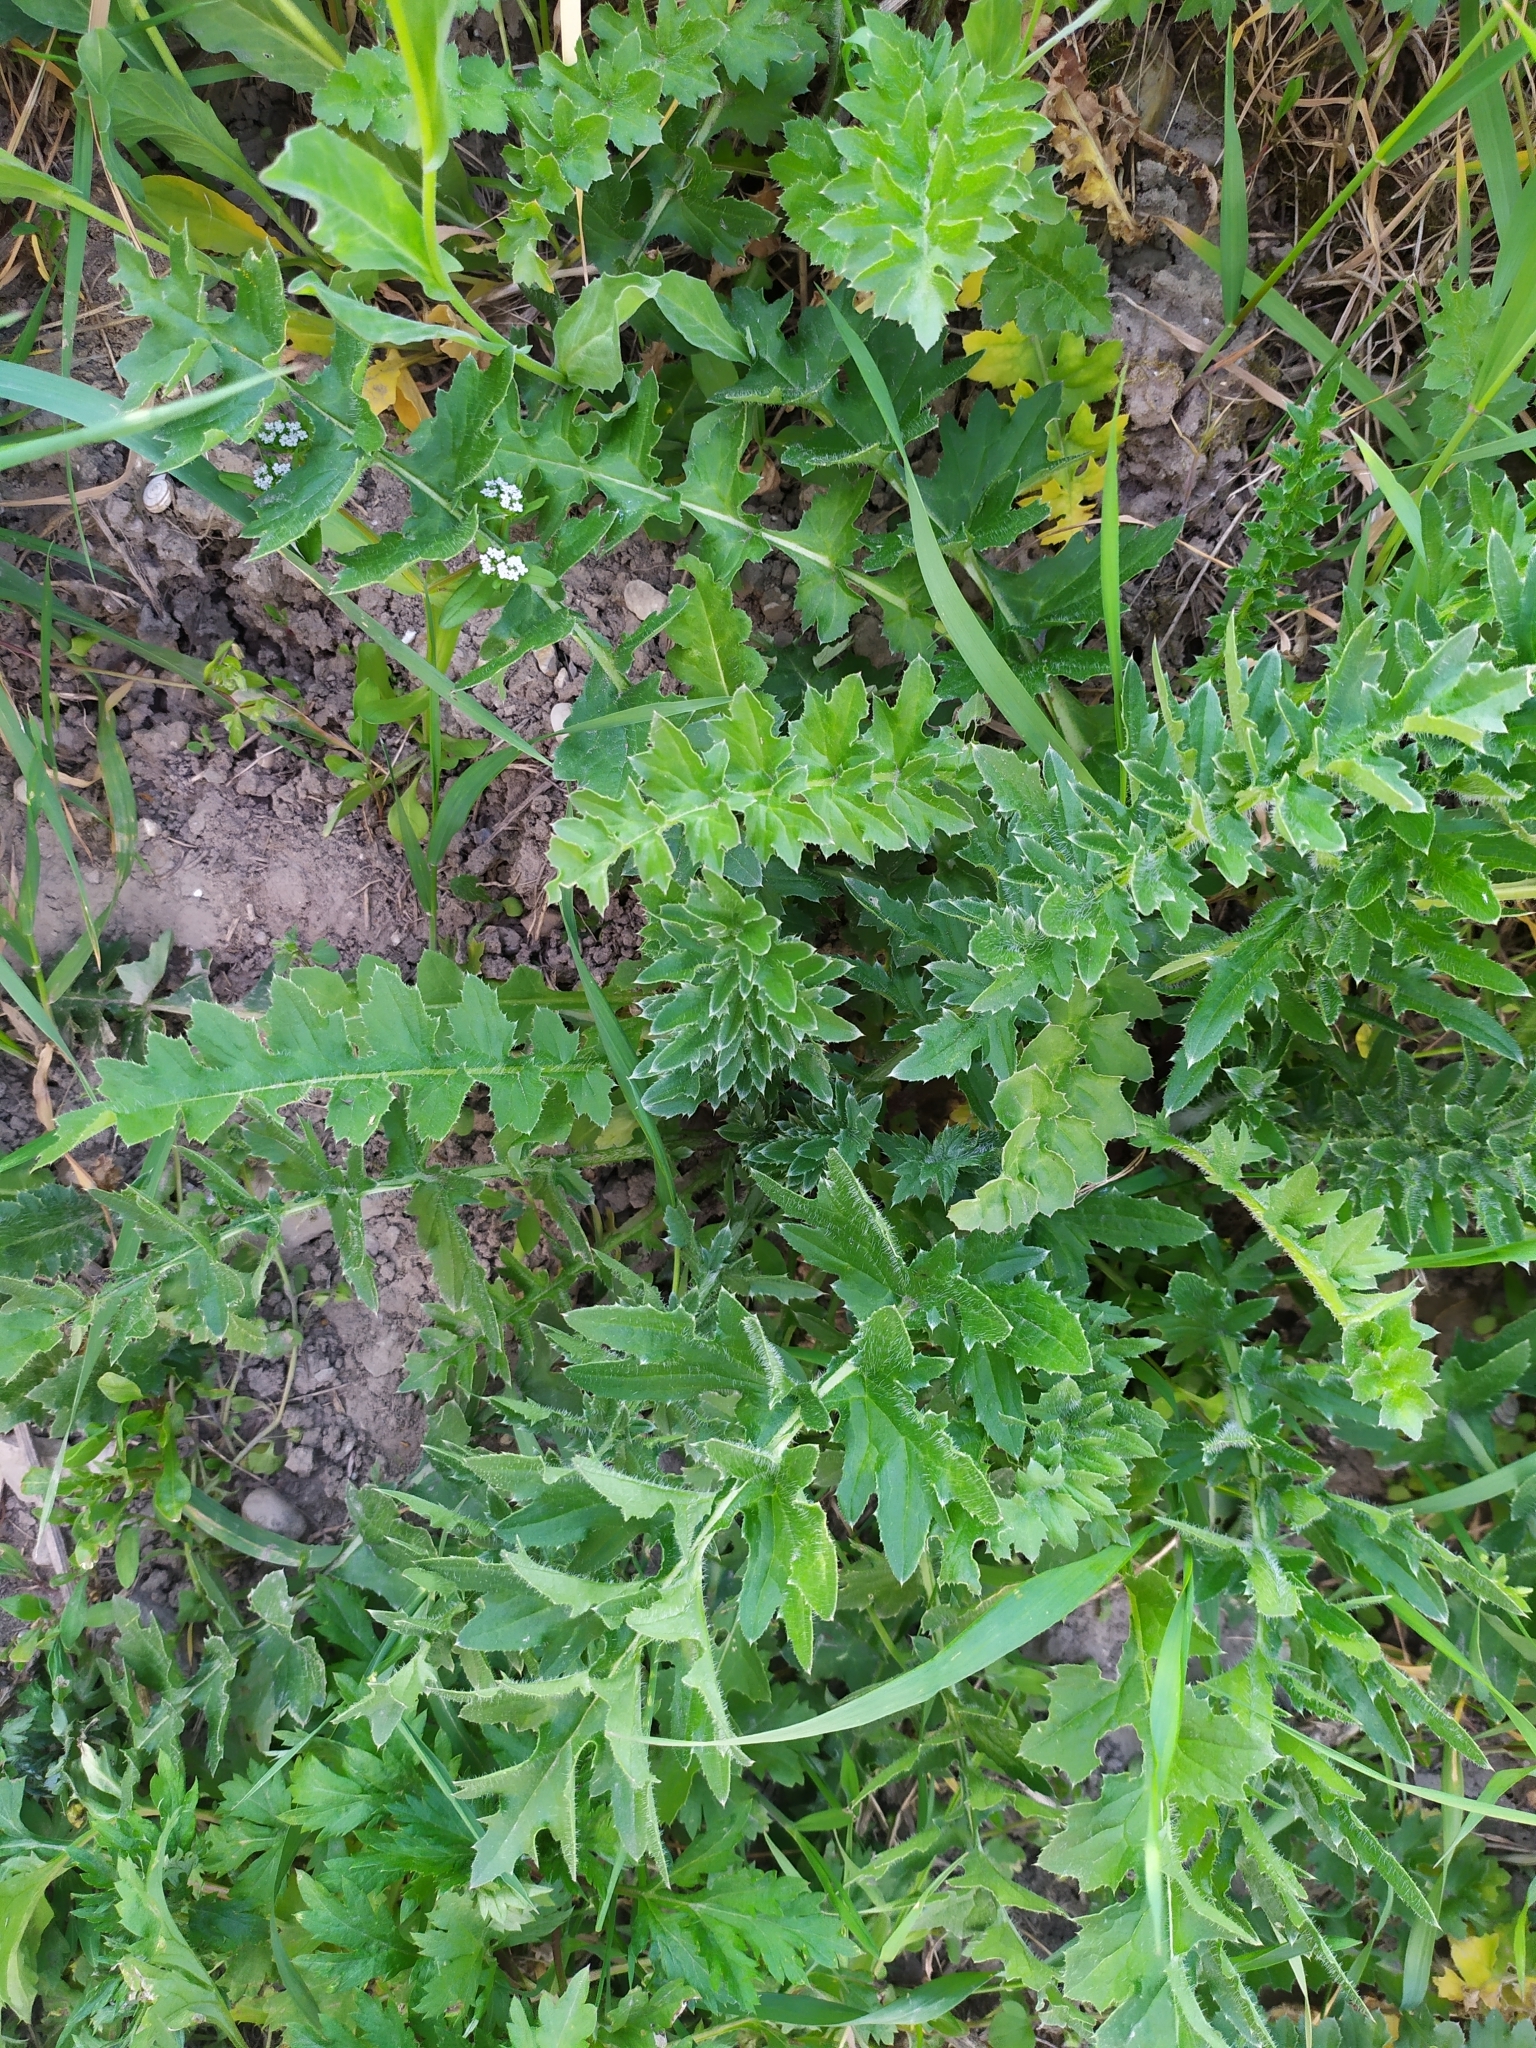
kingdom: Plantae
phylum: Tracheophyta
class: Magnoliopsida
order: Asterales
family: Asteraceae
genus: Carduus
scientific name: Carduus acanthoides
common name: Plumeless thistle
